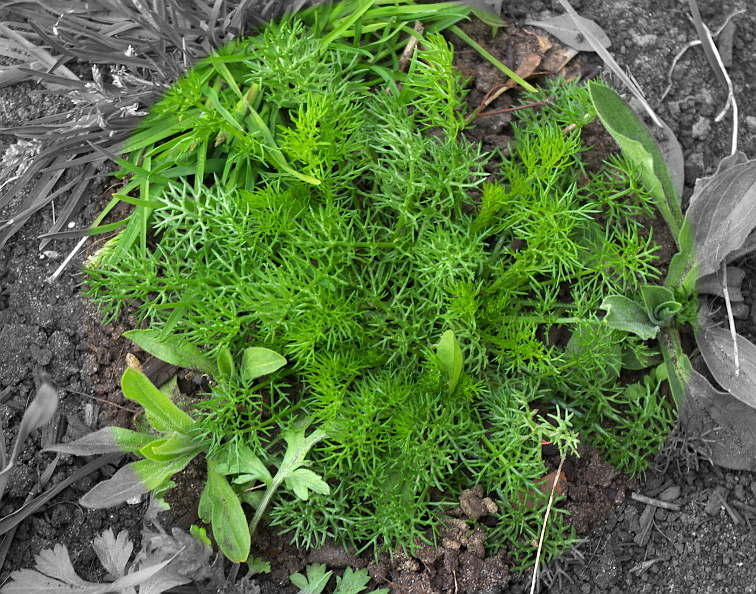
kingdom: Plantae
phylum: Tracheophyta
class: Magnoliopsida
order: Asterales
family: Asteraceae
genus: Tripleurospermum
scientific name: Tripleurospermum inodorum
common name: Scentless mayweed
